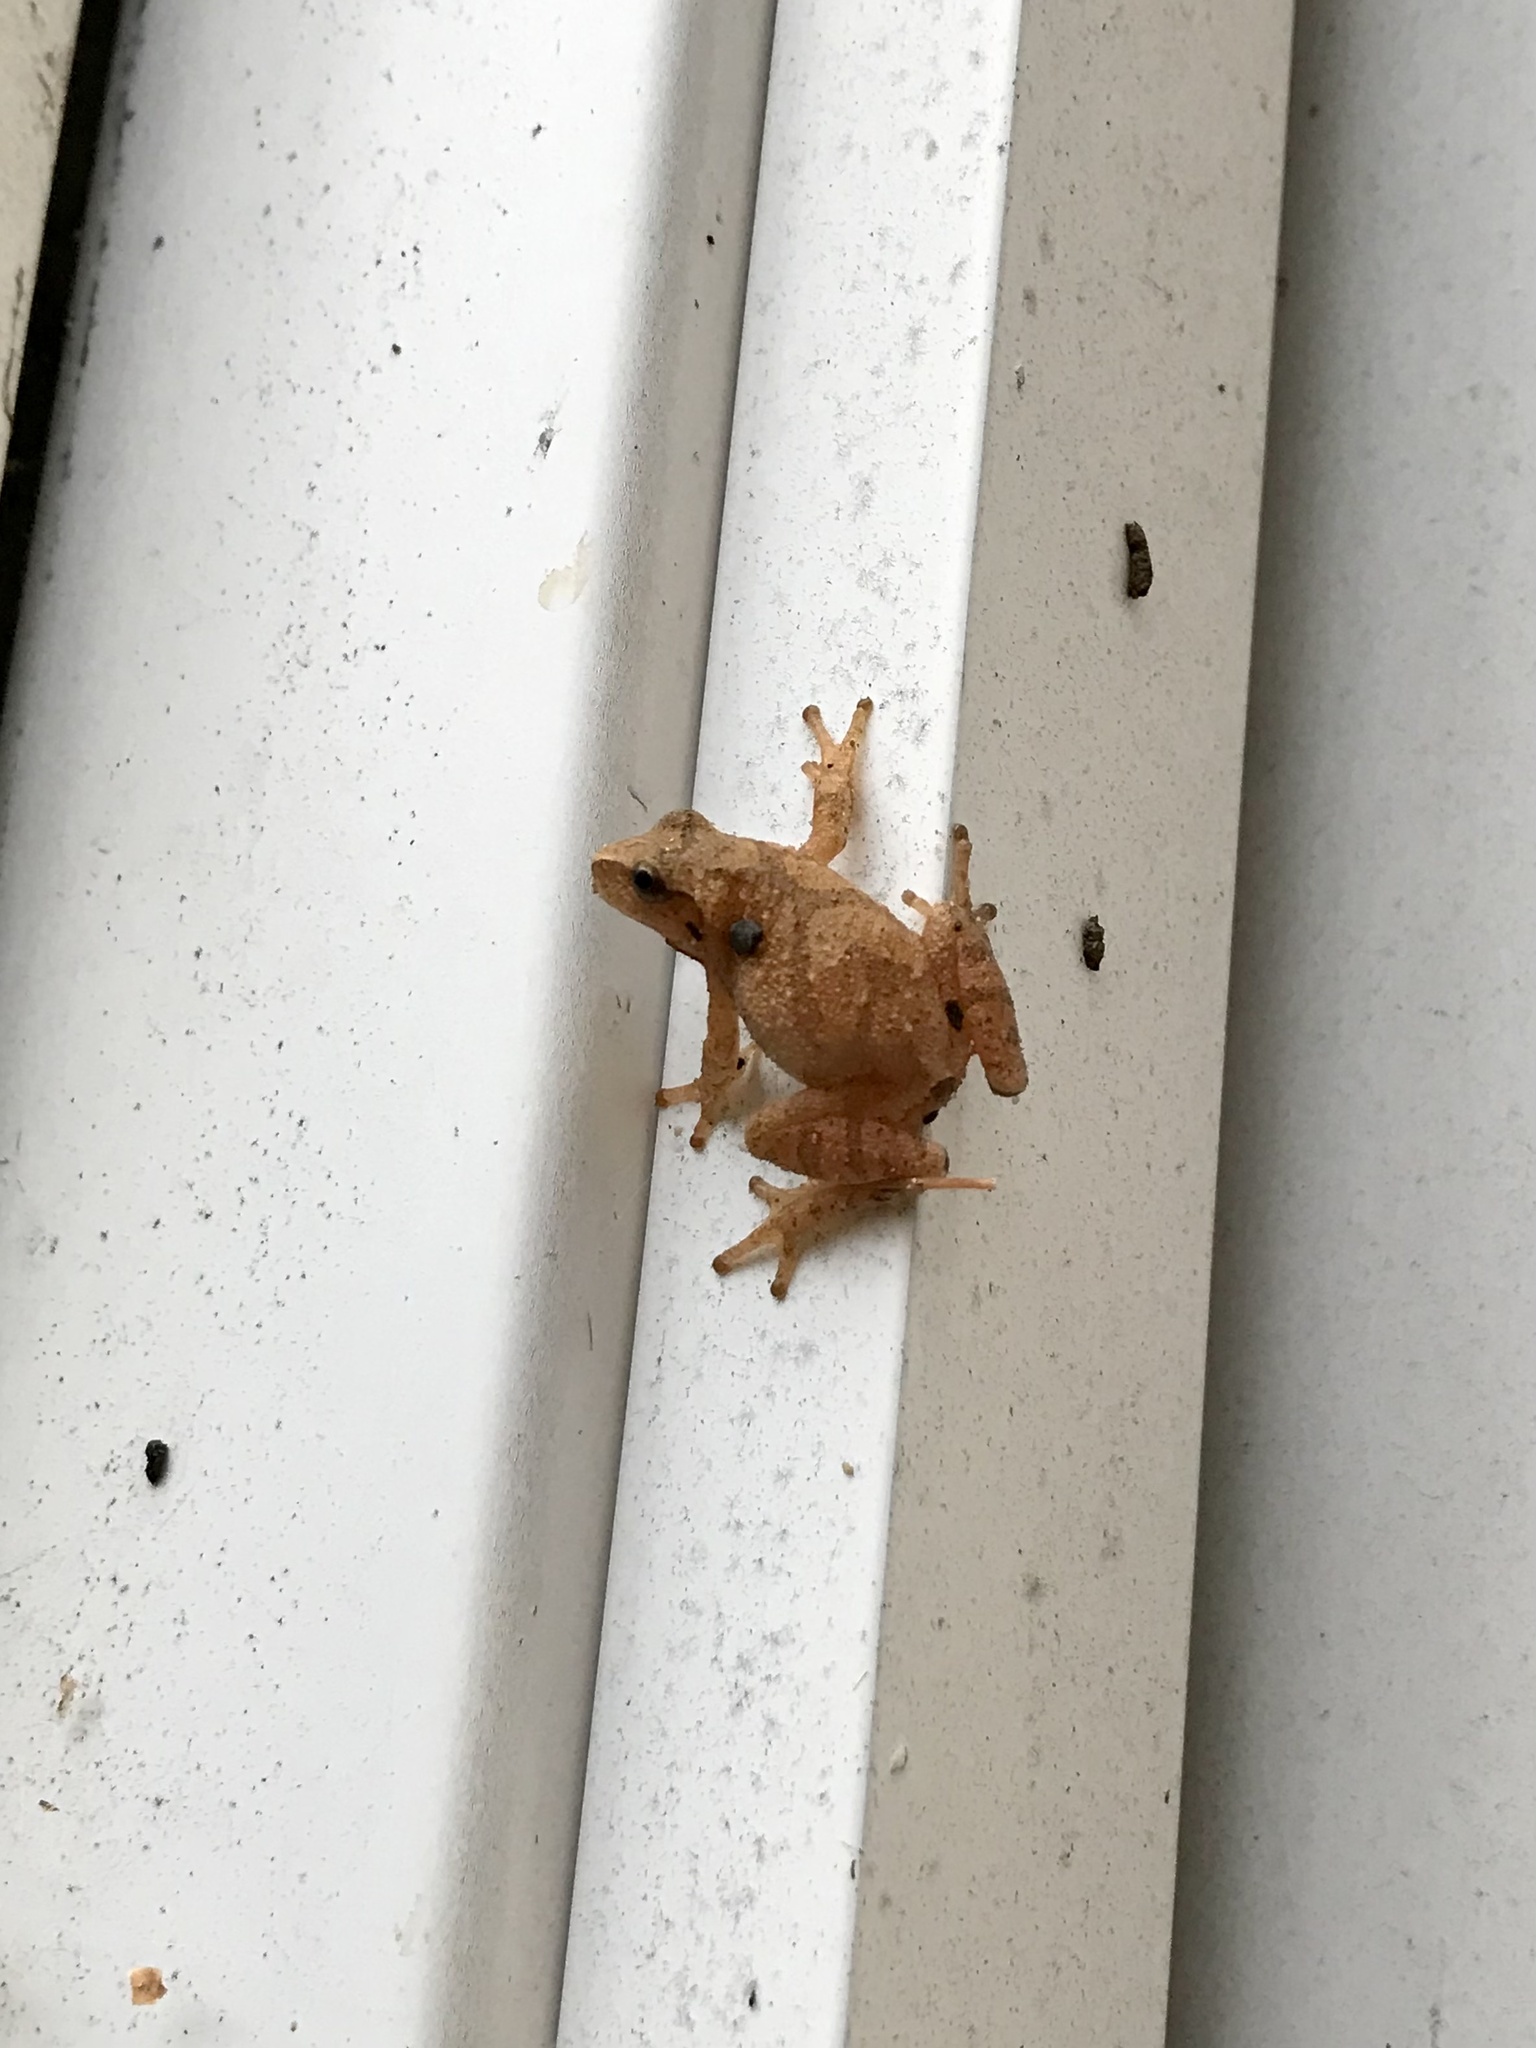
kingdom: Animalia
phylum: Chordata
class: Amphibia
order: Anura
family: Hylidae
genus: Pseudacris
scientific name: Pseudacris crucifer
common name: Spring peeper
